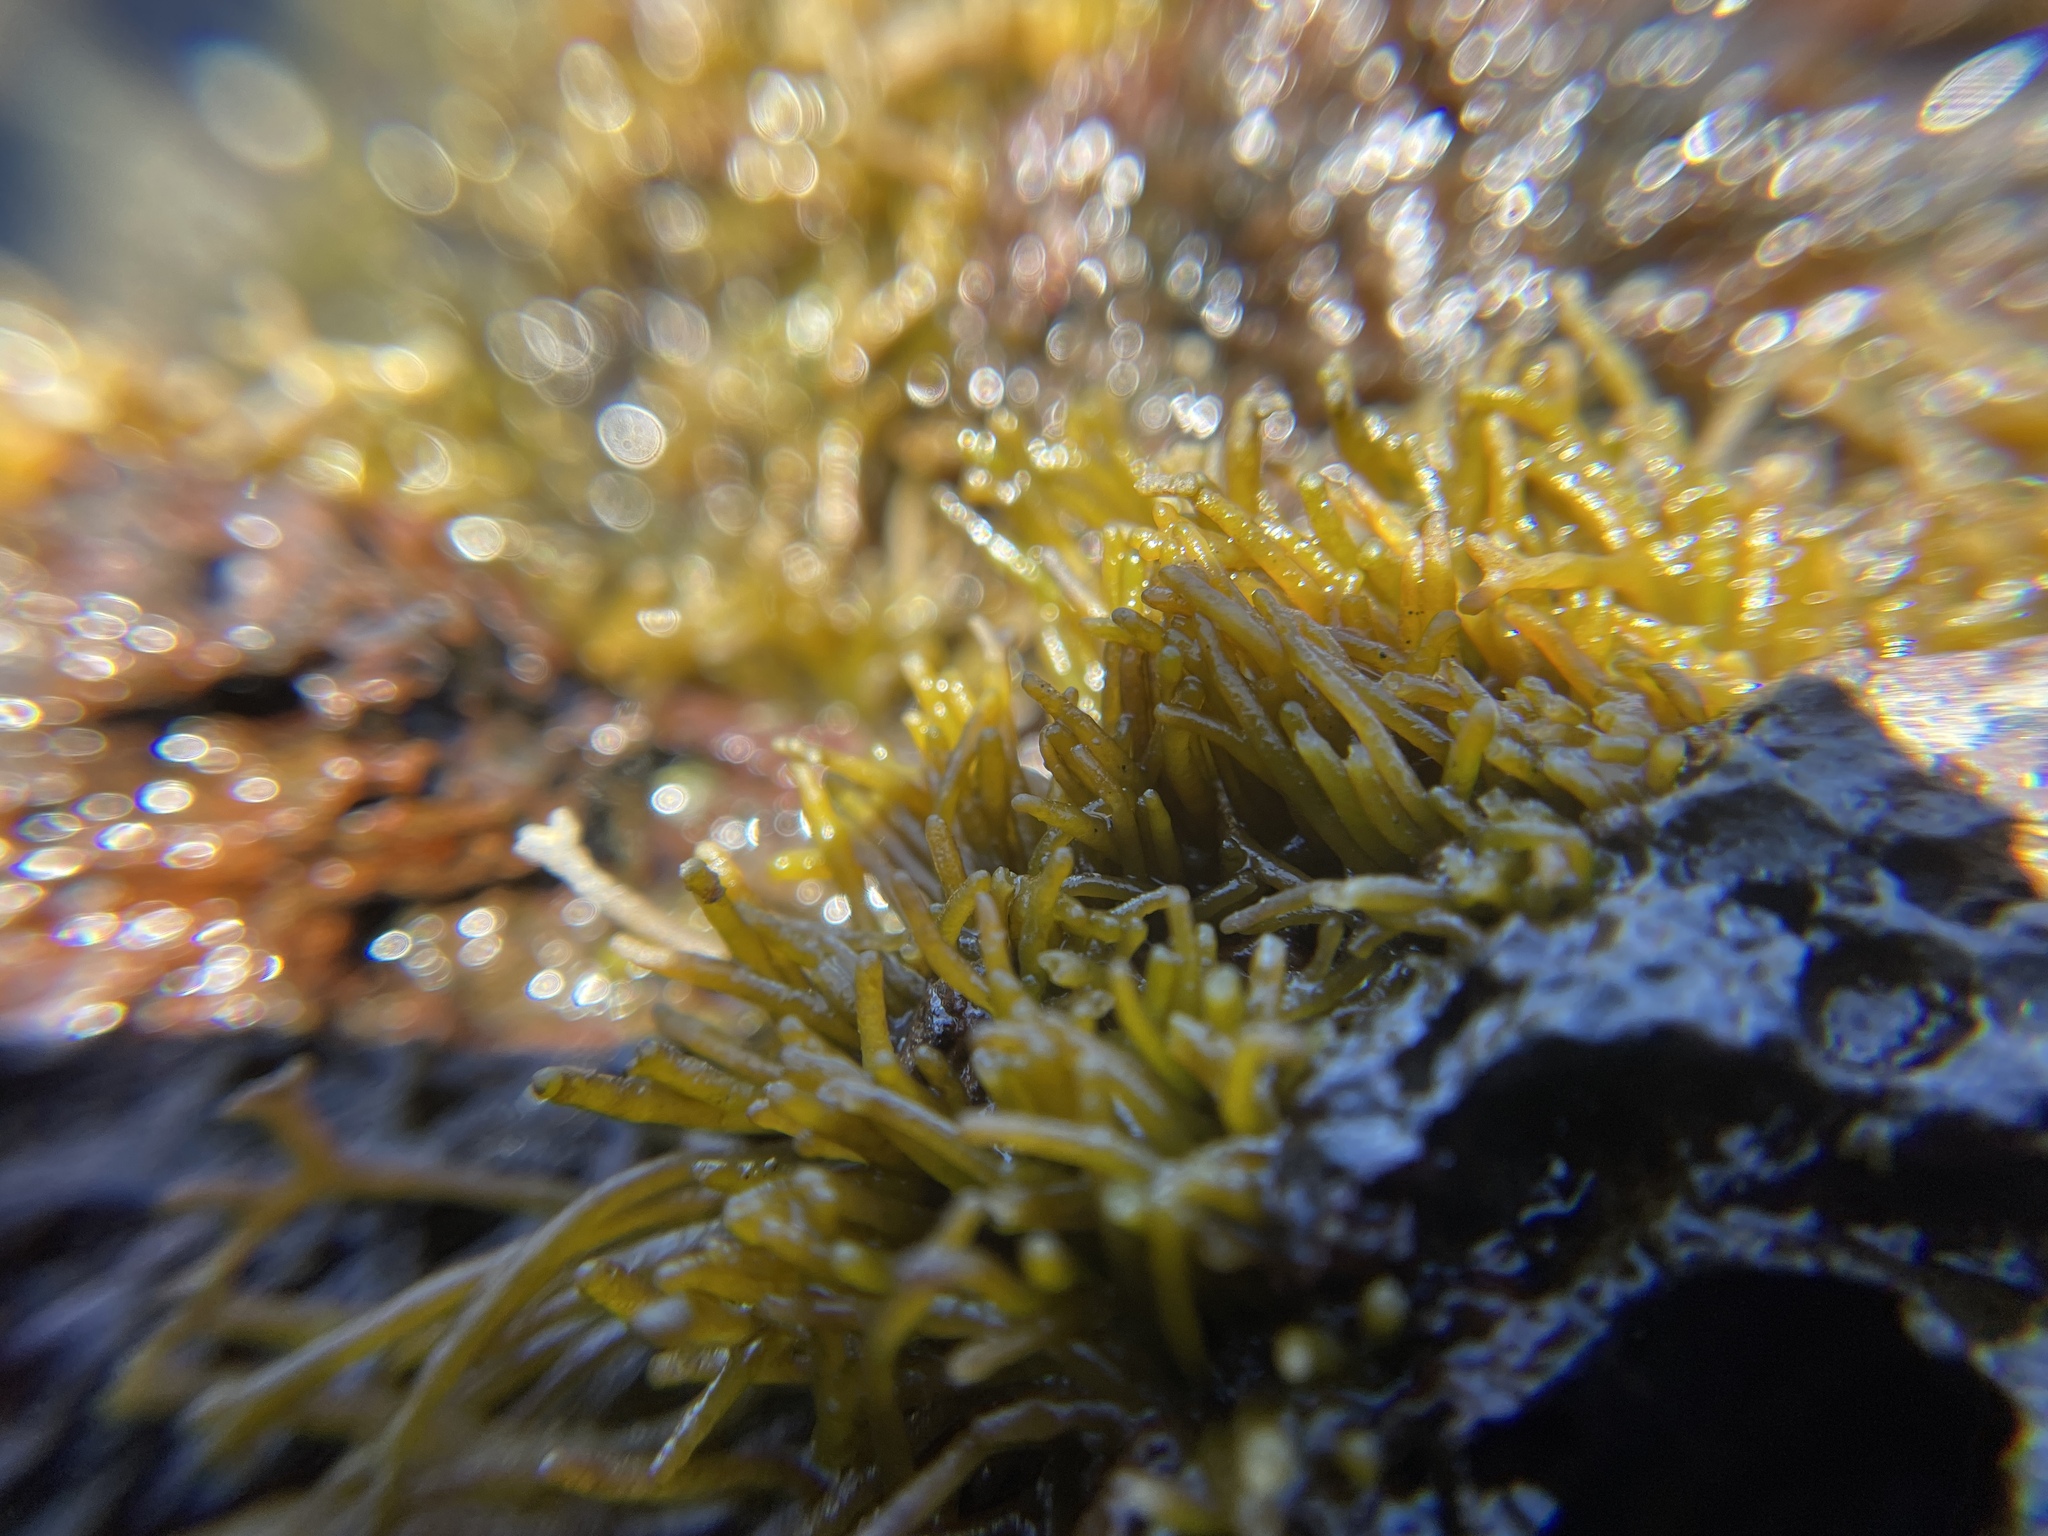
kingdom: Plantae
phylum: Rhodophyta
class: Florideophyceae
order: Gigartinales
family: Phyllophoraceae
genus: Gymnogongrus
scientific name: Gymnogongrus durvillei
